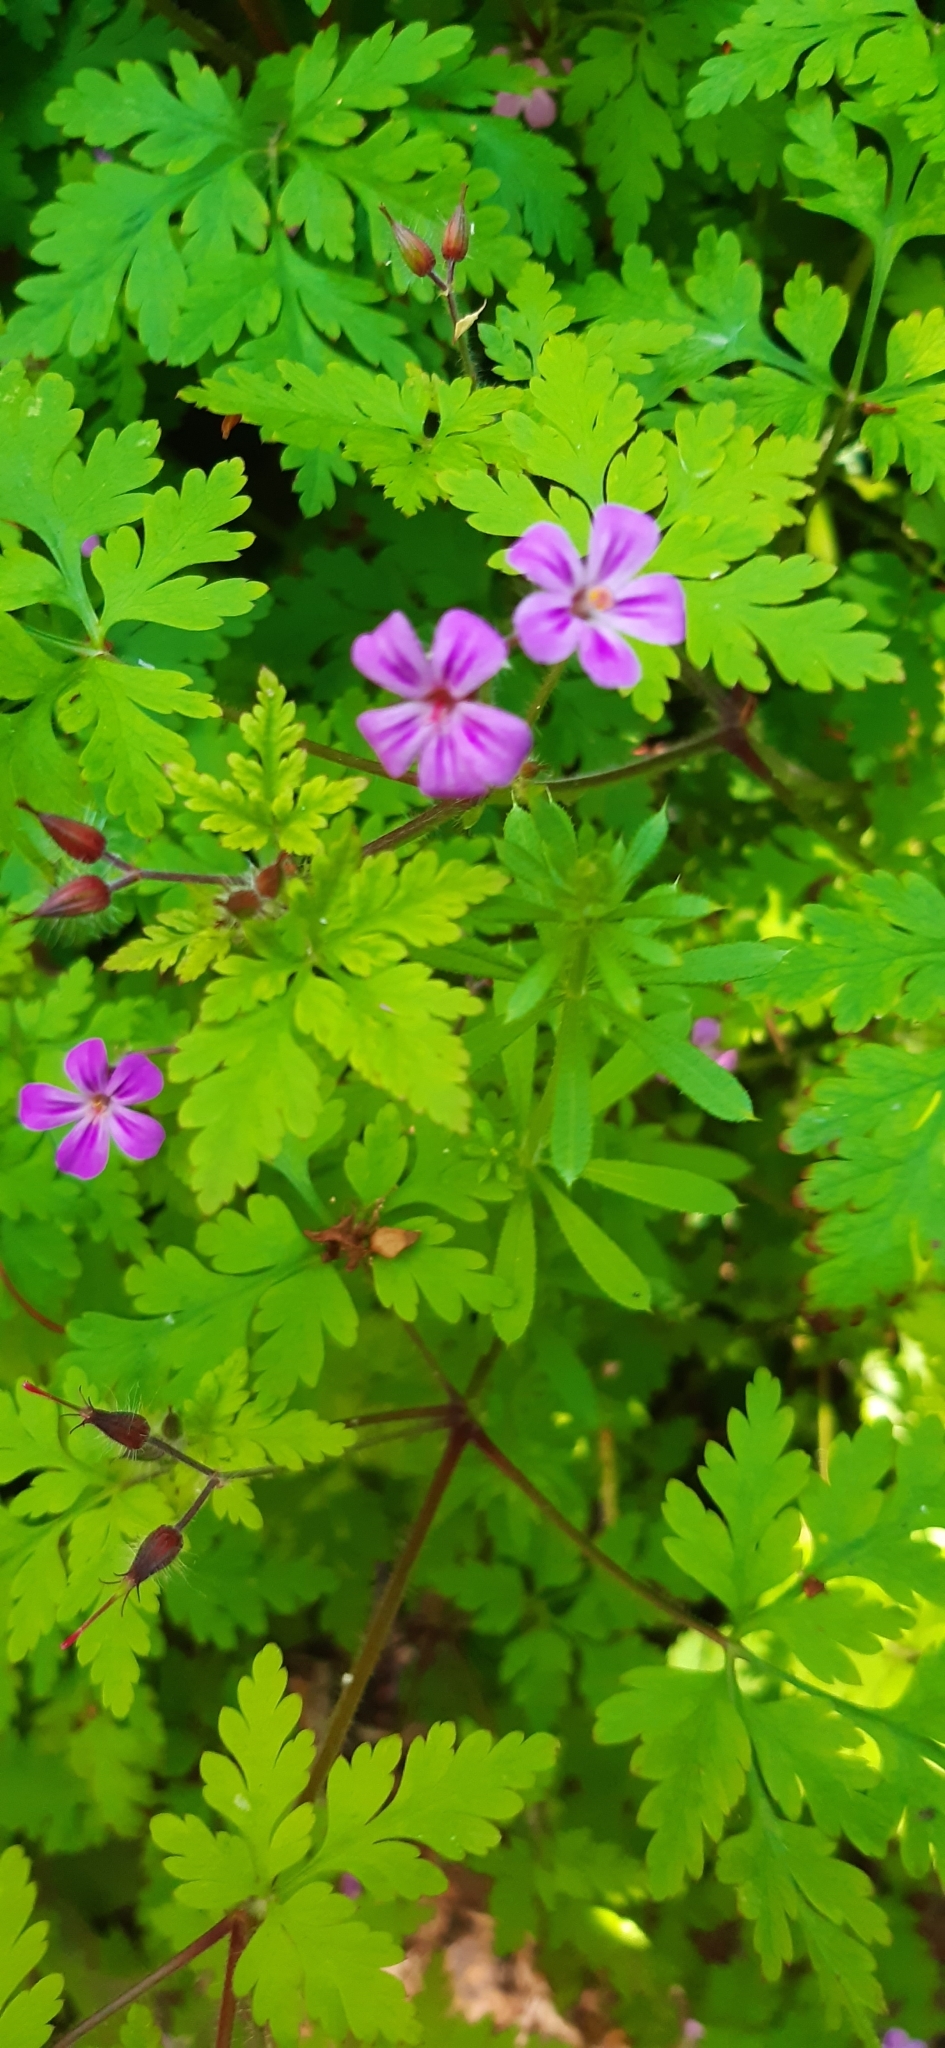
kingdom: Plantae
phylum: Tracheophyta
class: Magnoliopsida
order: Geraniales
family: Geraniaceae
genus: Geranium
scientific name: Geranium robertianum
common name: Herb-robert
